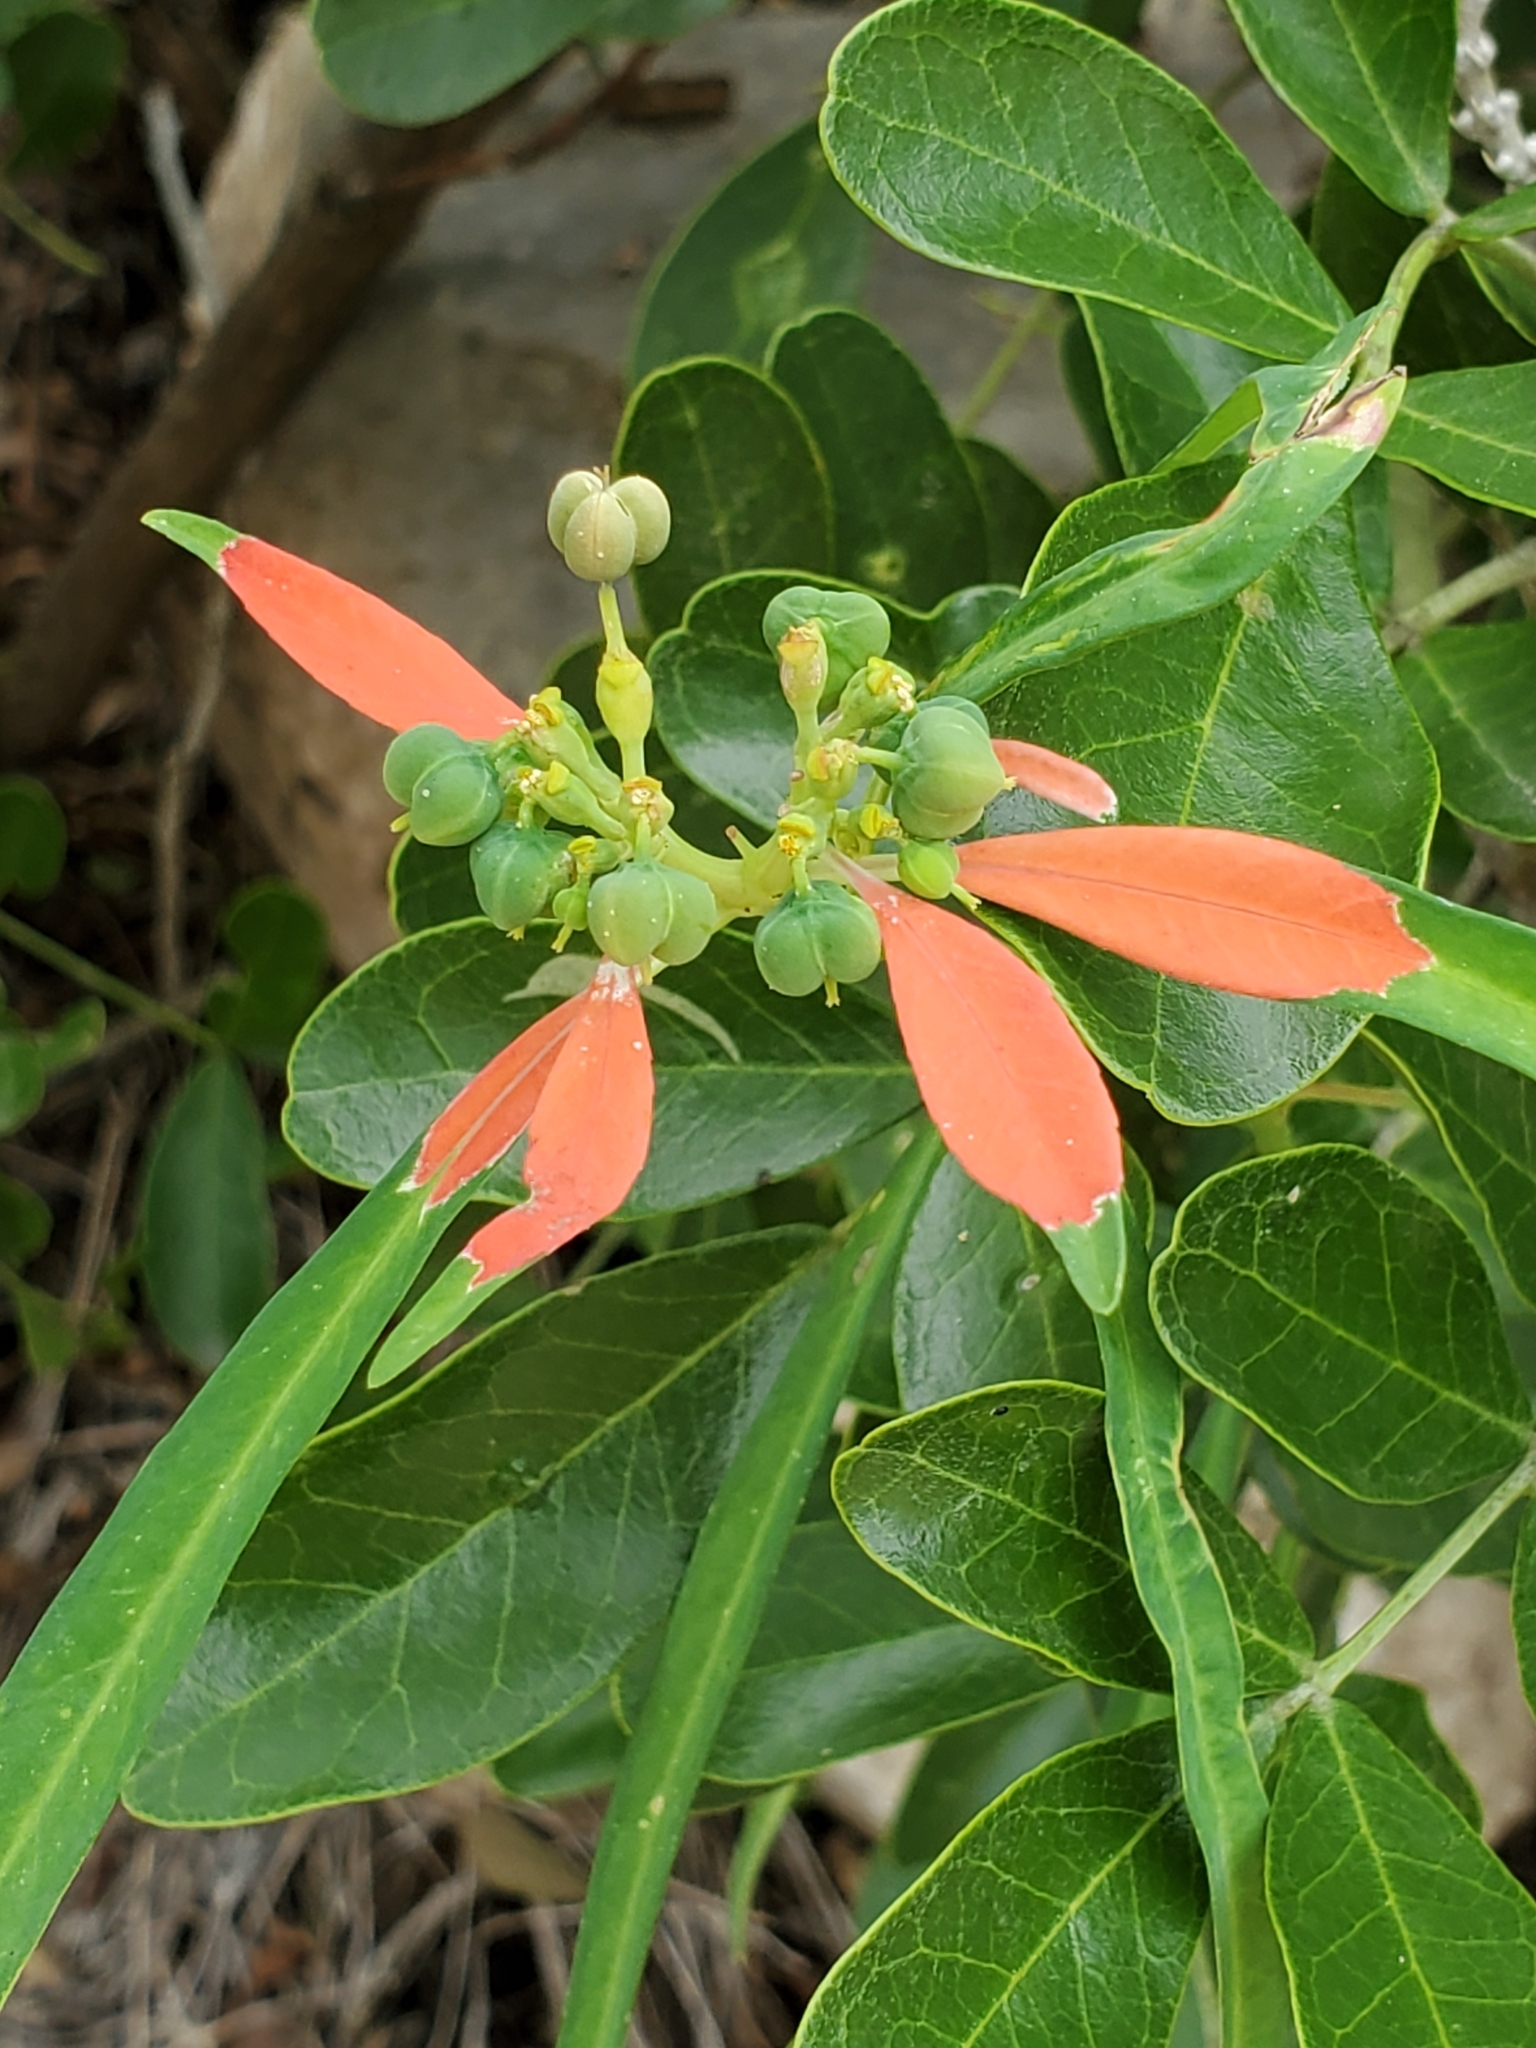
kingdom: Plantae
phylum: Tracheophyta
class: Magnoliopsida
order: Malpighiales
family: Euphorbiaceae
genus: Euphorbia
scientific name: Euphorbia heterophylla
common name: Mexican fireplant
